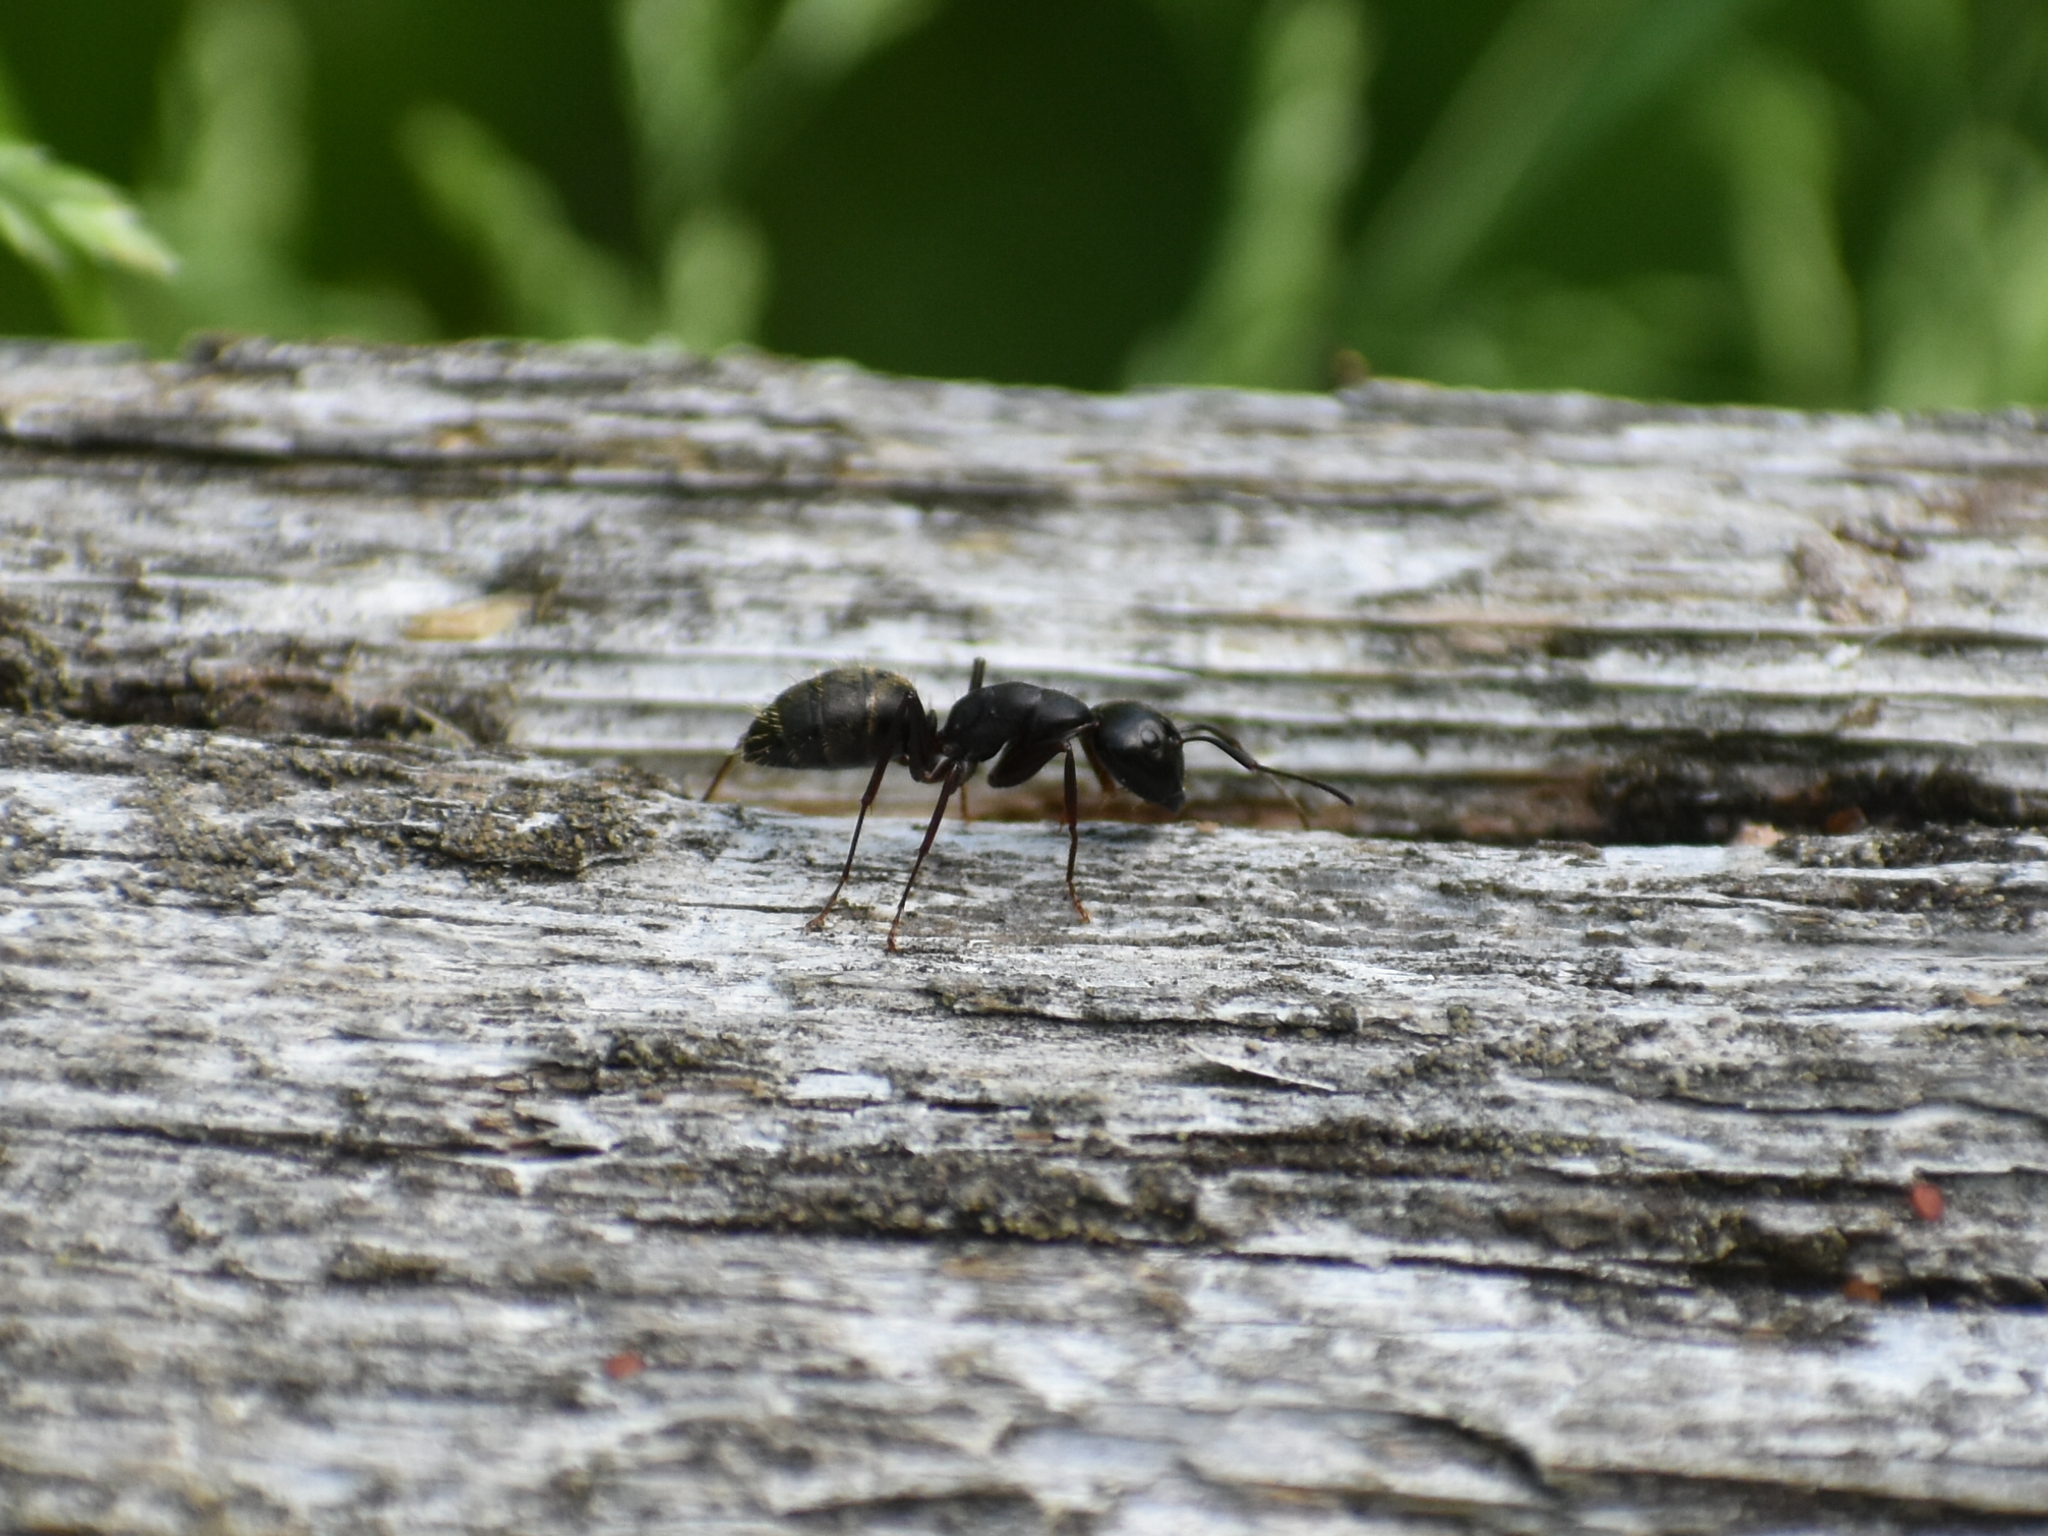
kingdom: Animalia
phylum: Arthropoda
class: Insecta
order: Hymenoptera
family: Formicidae
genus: Camponotus
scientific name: Camponotus pennsylvanicus
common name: Black carpenter ant
